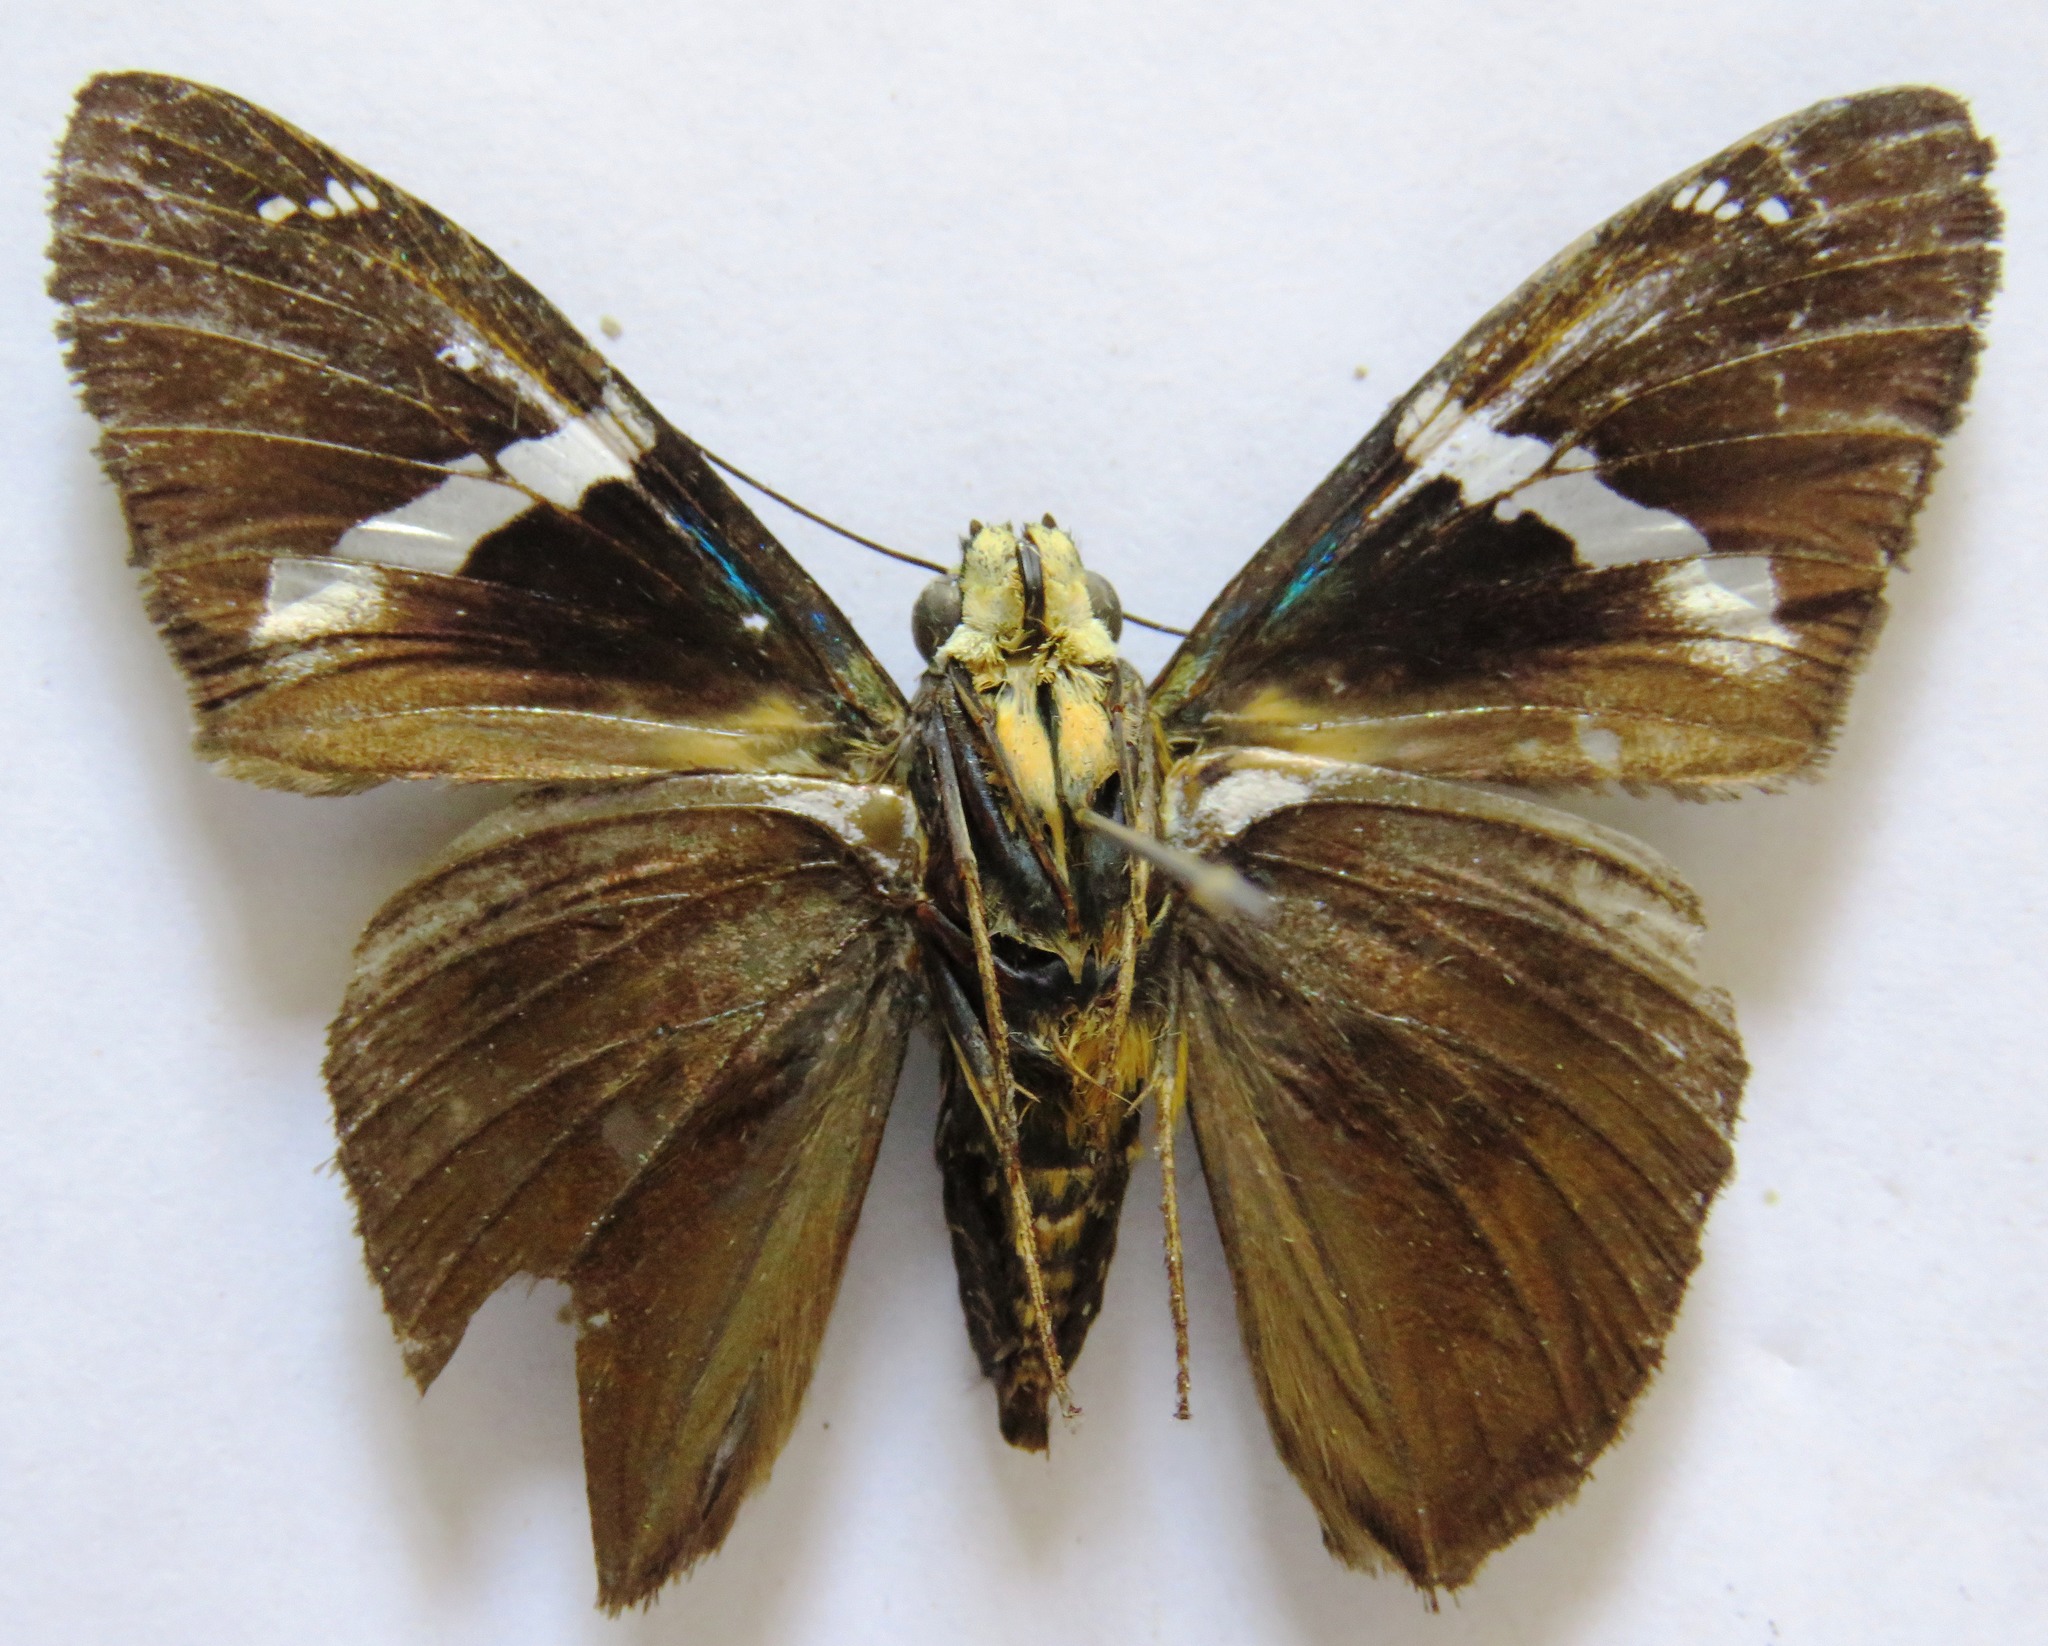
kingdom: Animalia
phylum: Arthropoda
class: Arachnida
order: Scorpiones
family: Bothriuridae
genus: Telegonus
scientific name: Telegonus
